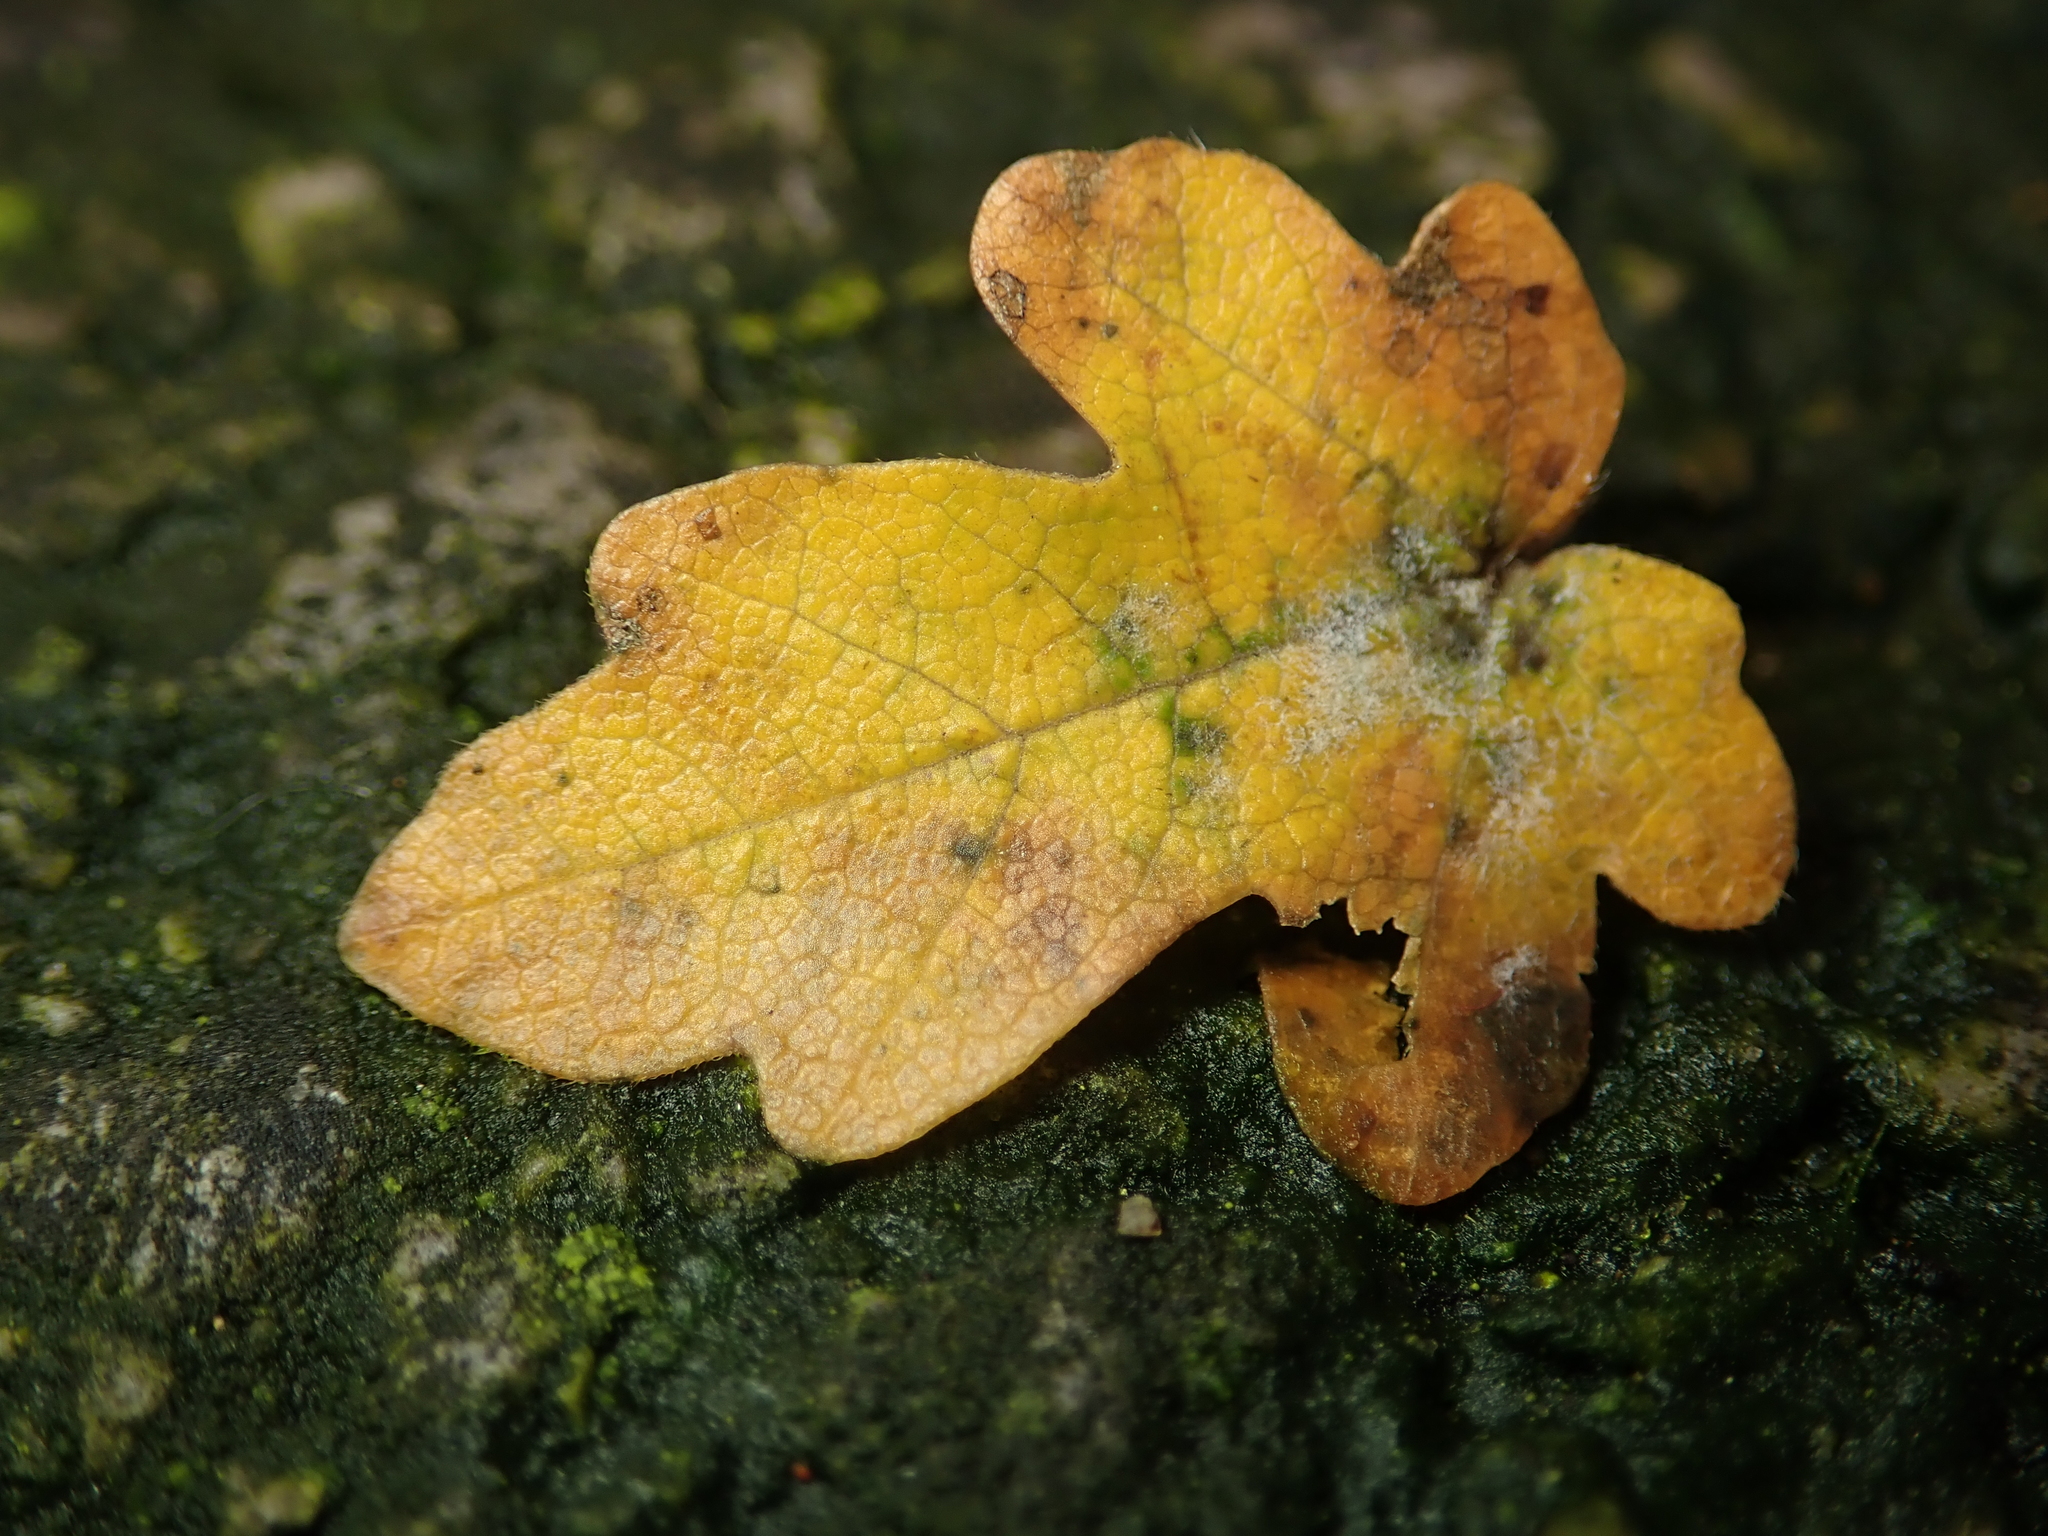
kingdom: Plantae
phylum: Tracheophyta
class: Magnoliopsida
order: Sapindales
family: Sapindaceae
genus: Acer
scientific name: Acer campestre
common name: Field maple
